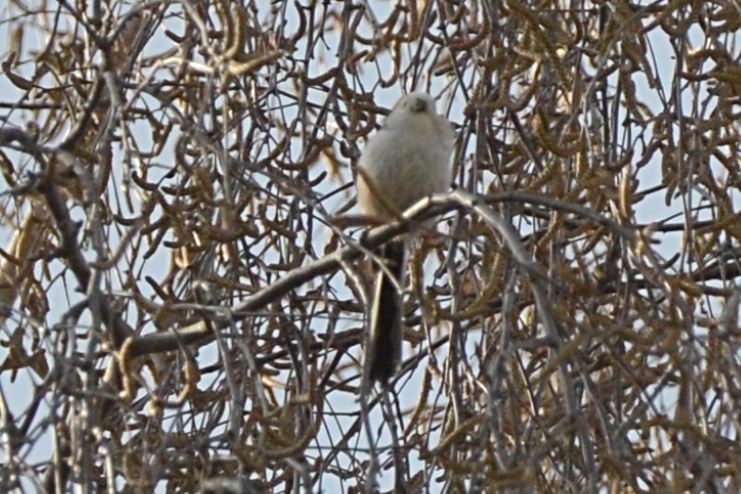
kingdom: Animalia
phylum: Chordata
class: Aves
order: Passeriformes
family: Aegithalidae
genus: Aegithalos
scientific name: Aegithalos caudatus
